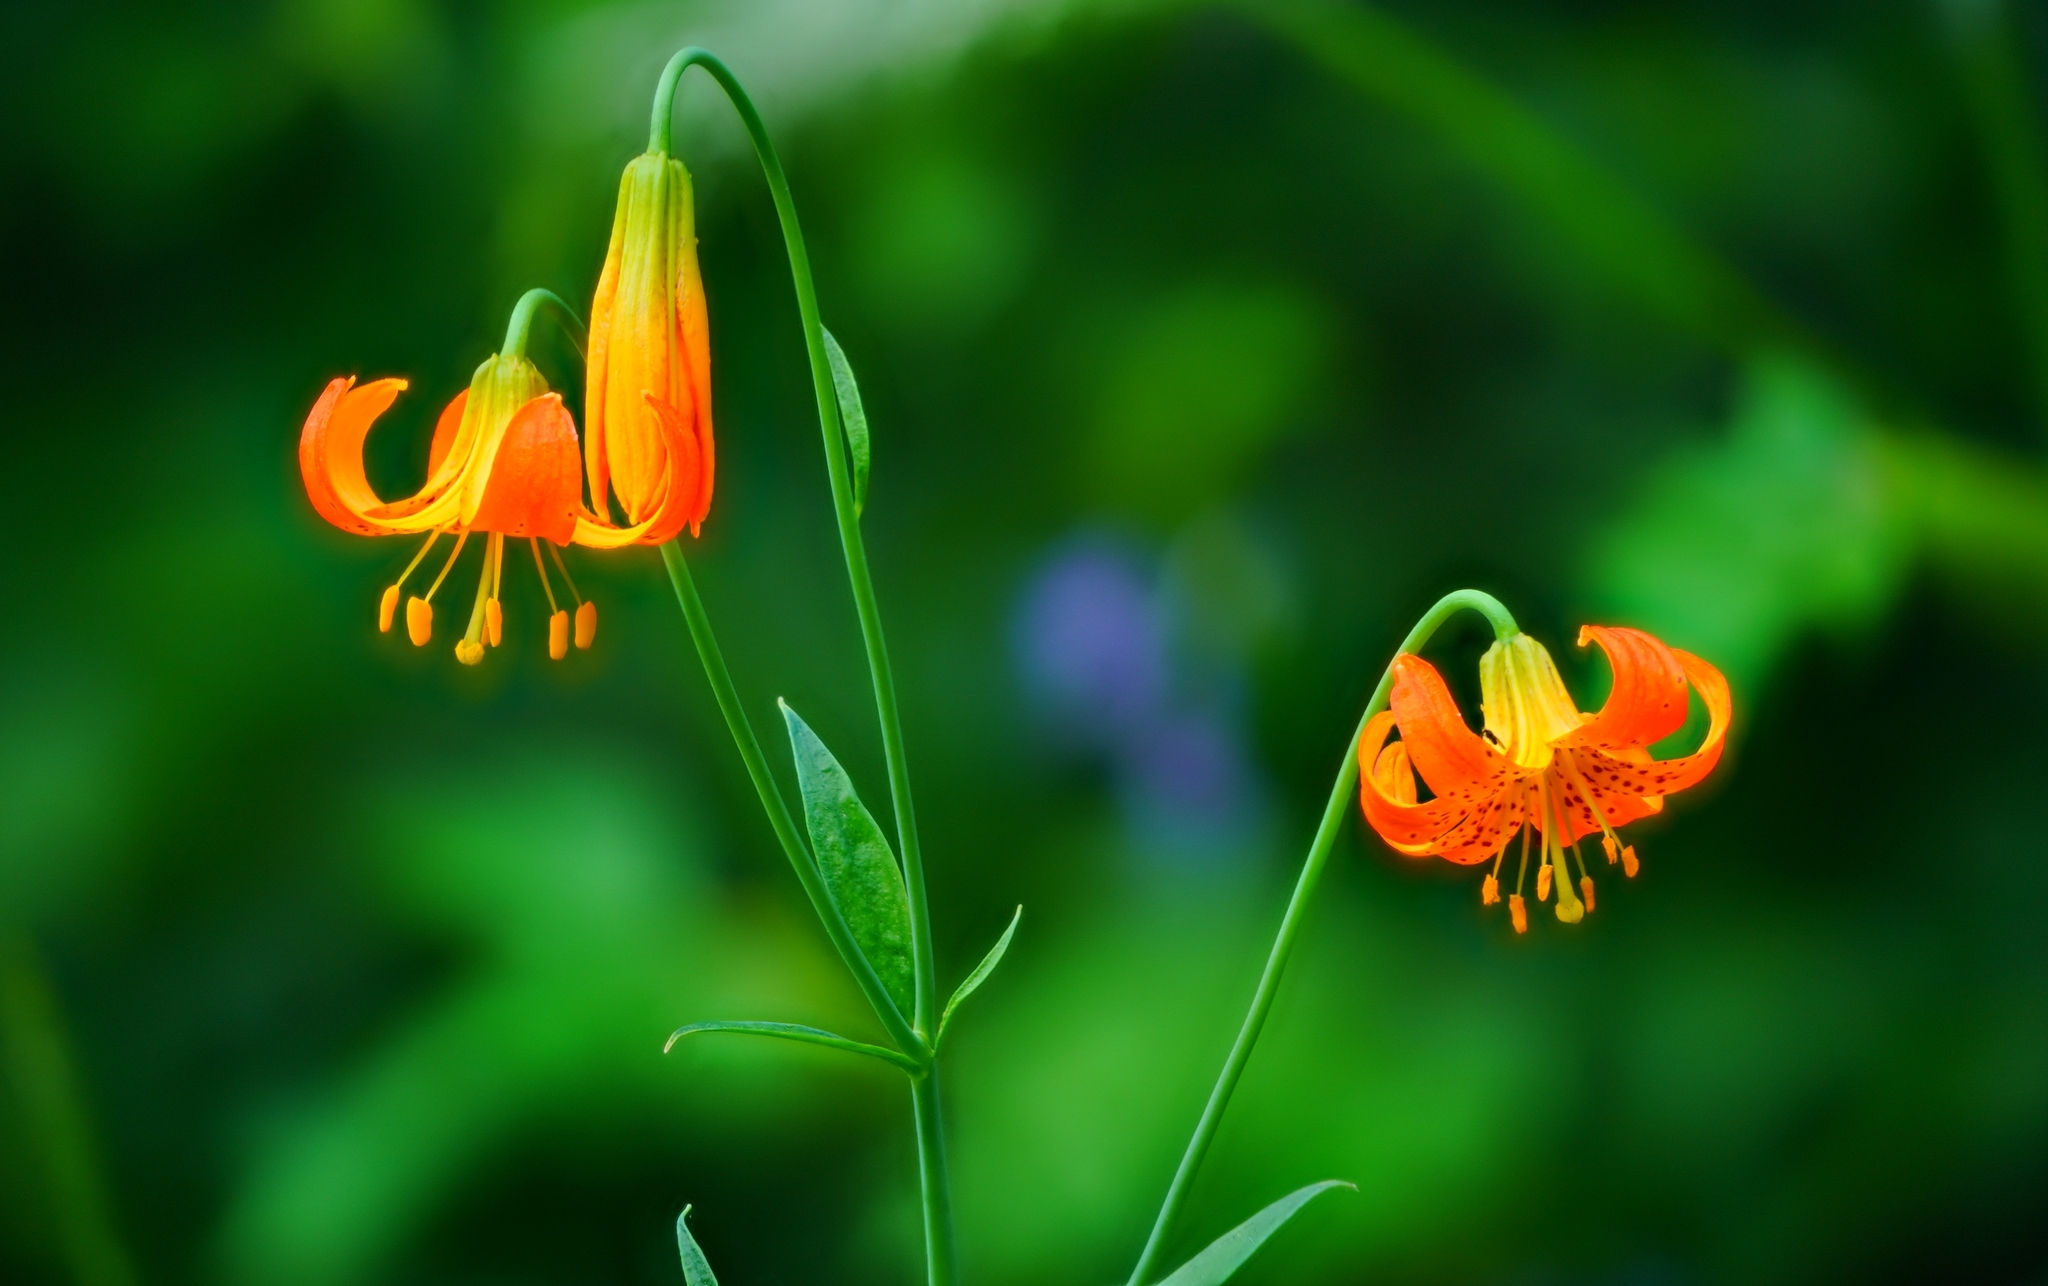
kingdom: Plantae
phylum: Tracheophyta
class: Liliopsida
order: Liliales
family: Liliaceae
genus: Lilium
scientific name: Lilium pardalinum
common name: Panther lily
